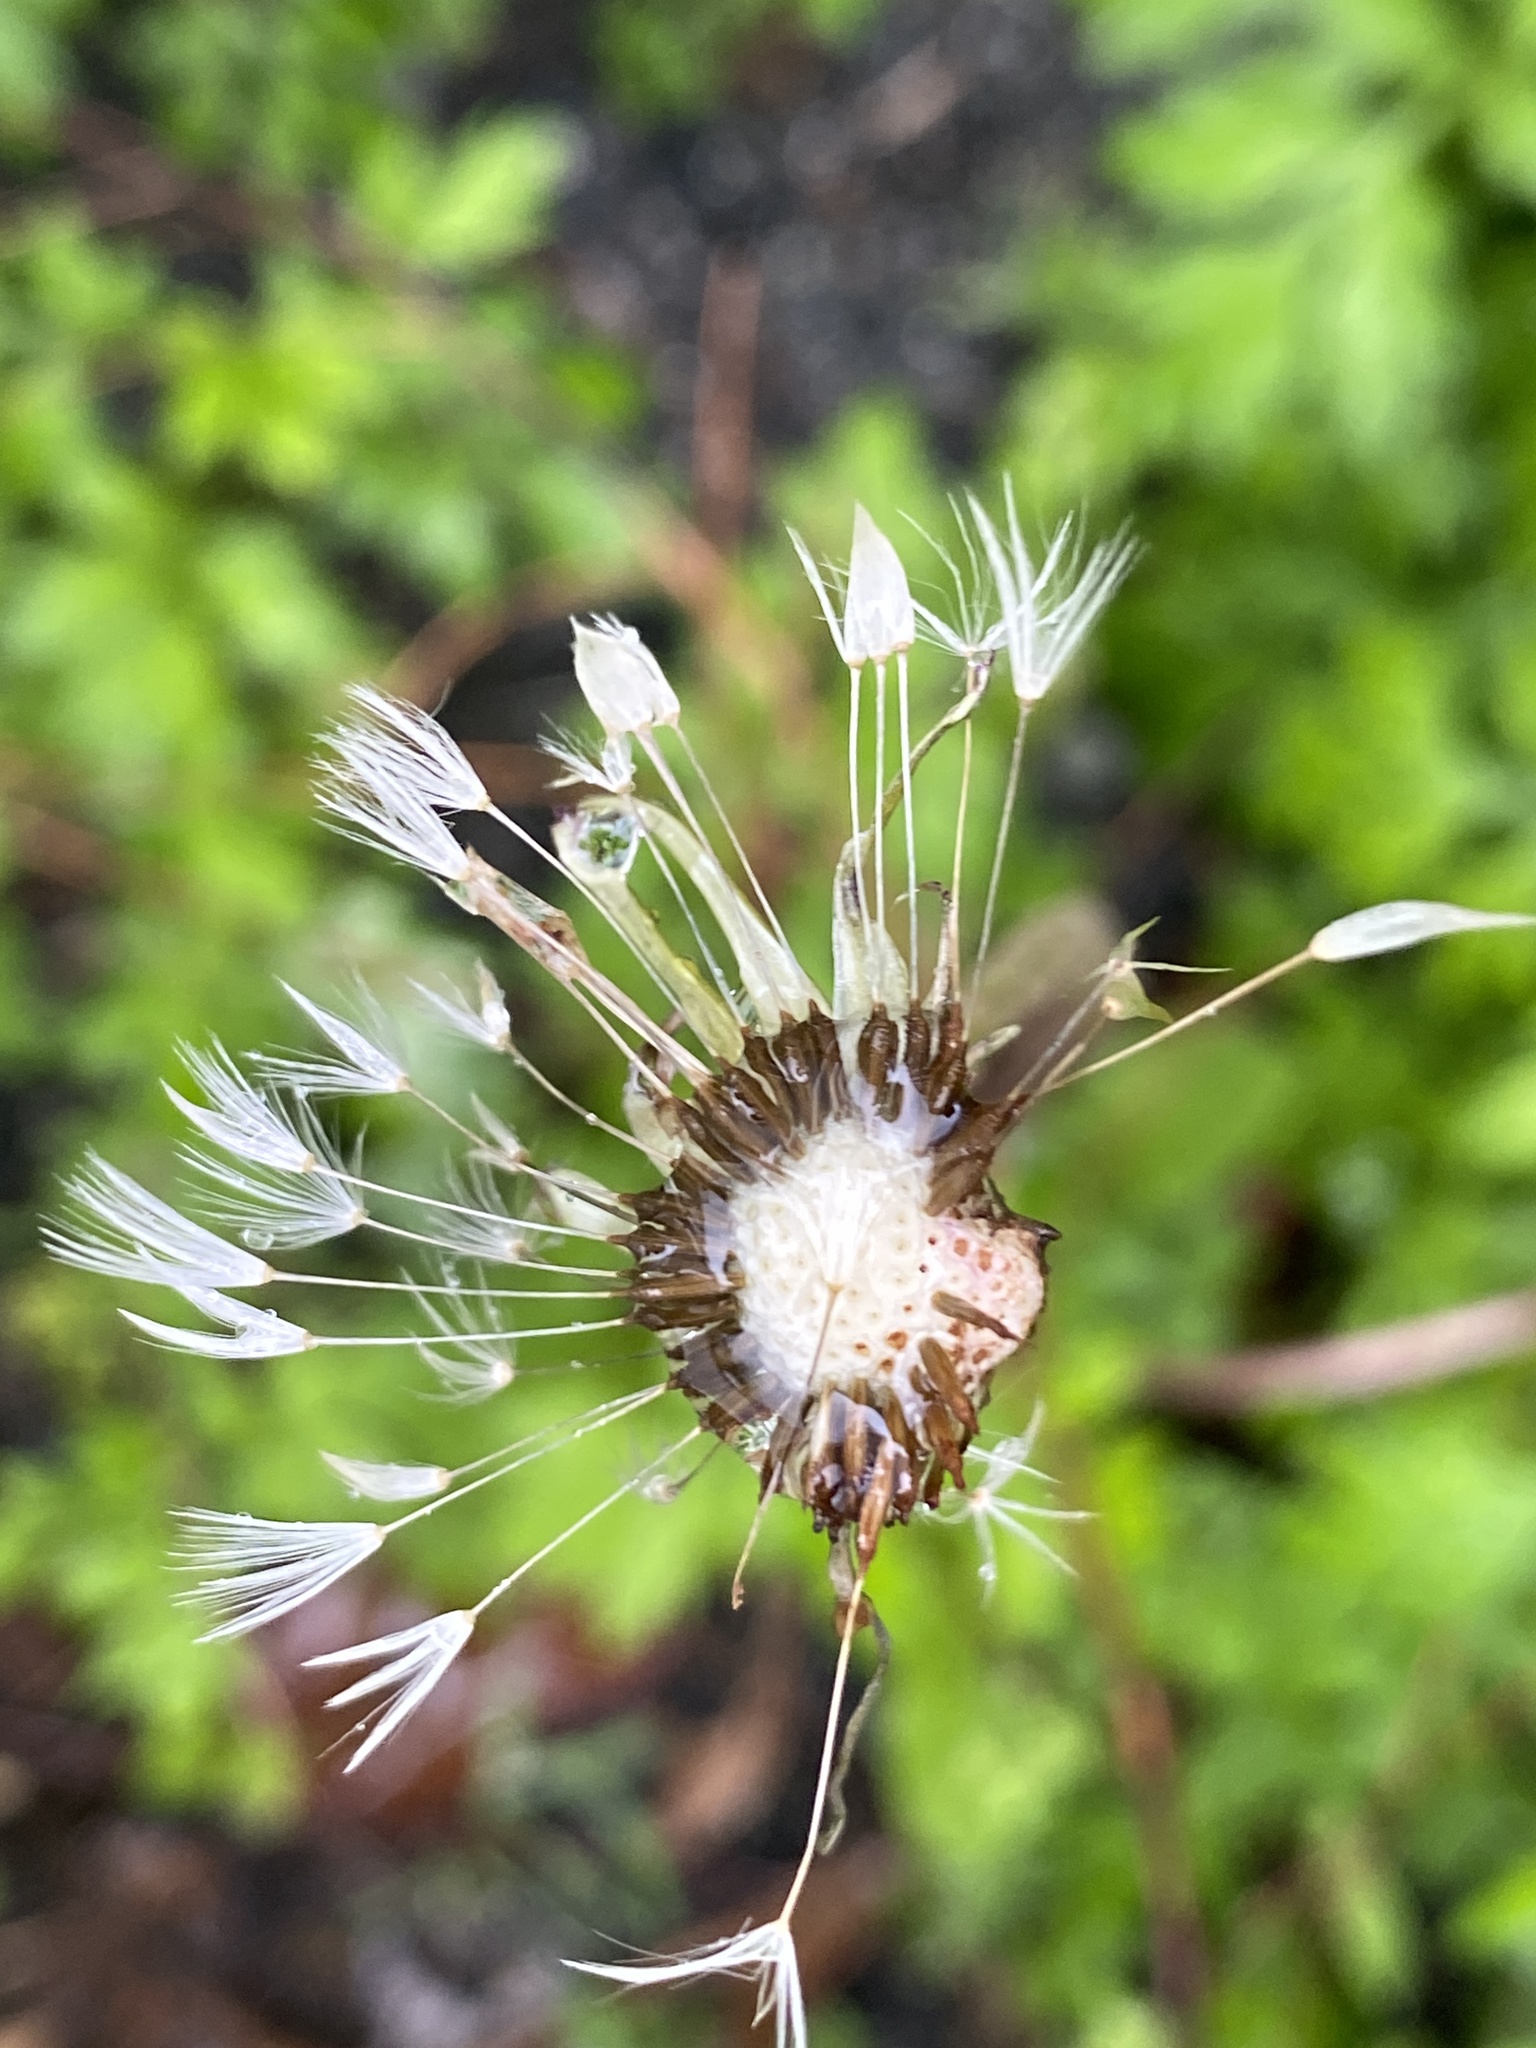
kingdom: Plantae
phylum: Tracheophyta
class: Magnoliopsida
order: Asterales
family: Asteraceae
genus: Taraxacum
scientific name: Taraxacum officinale
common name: Common dandelion
